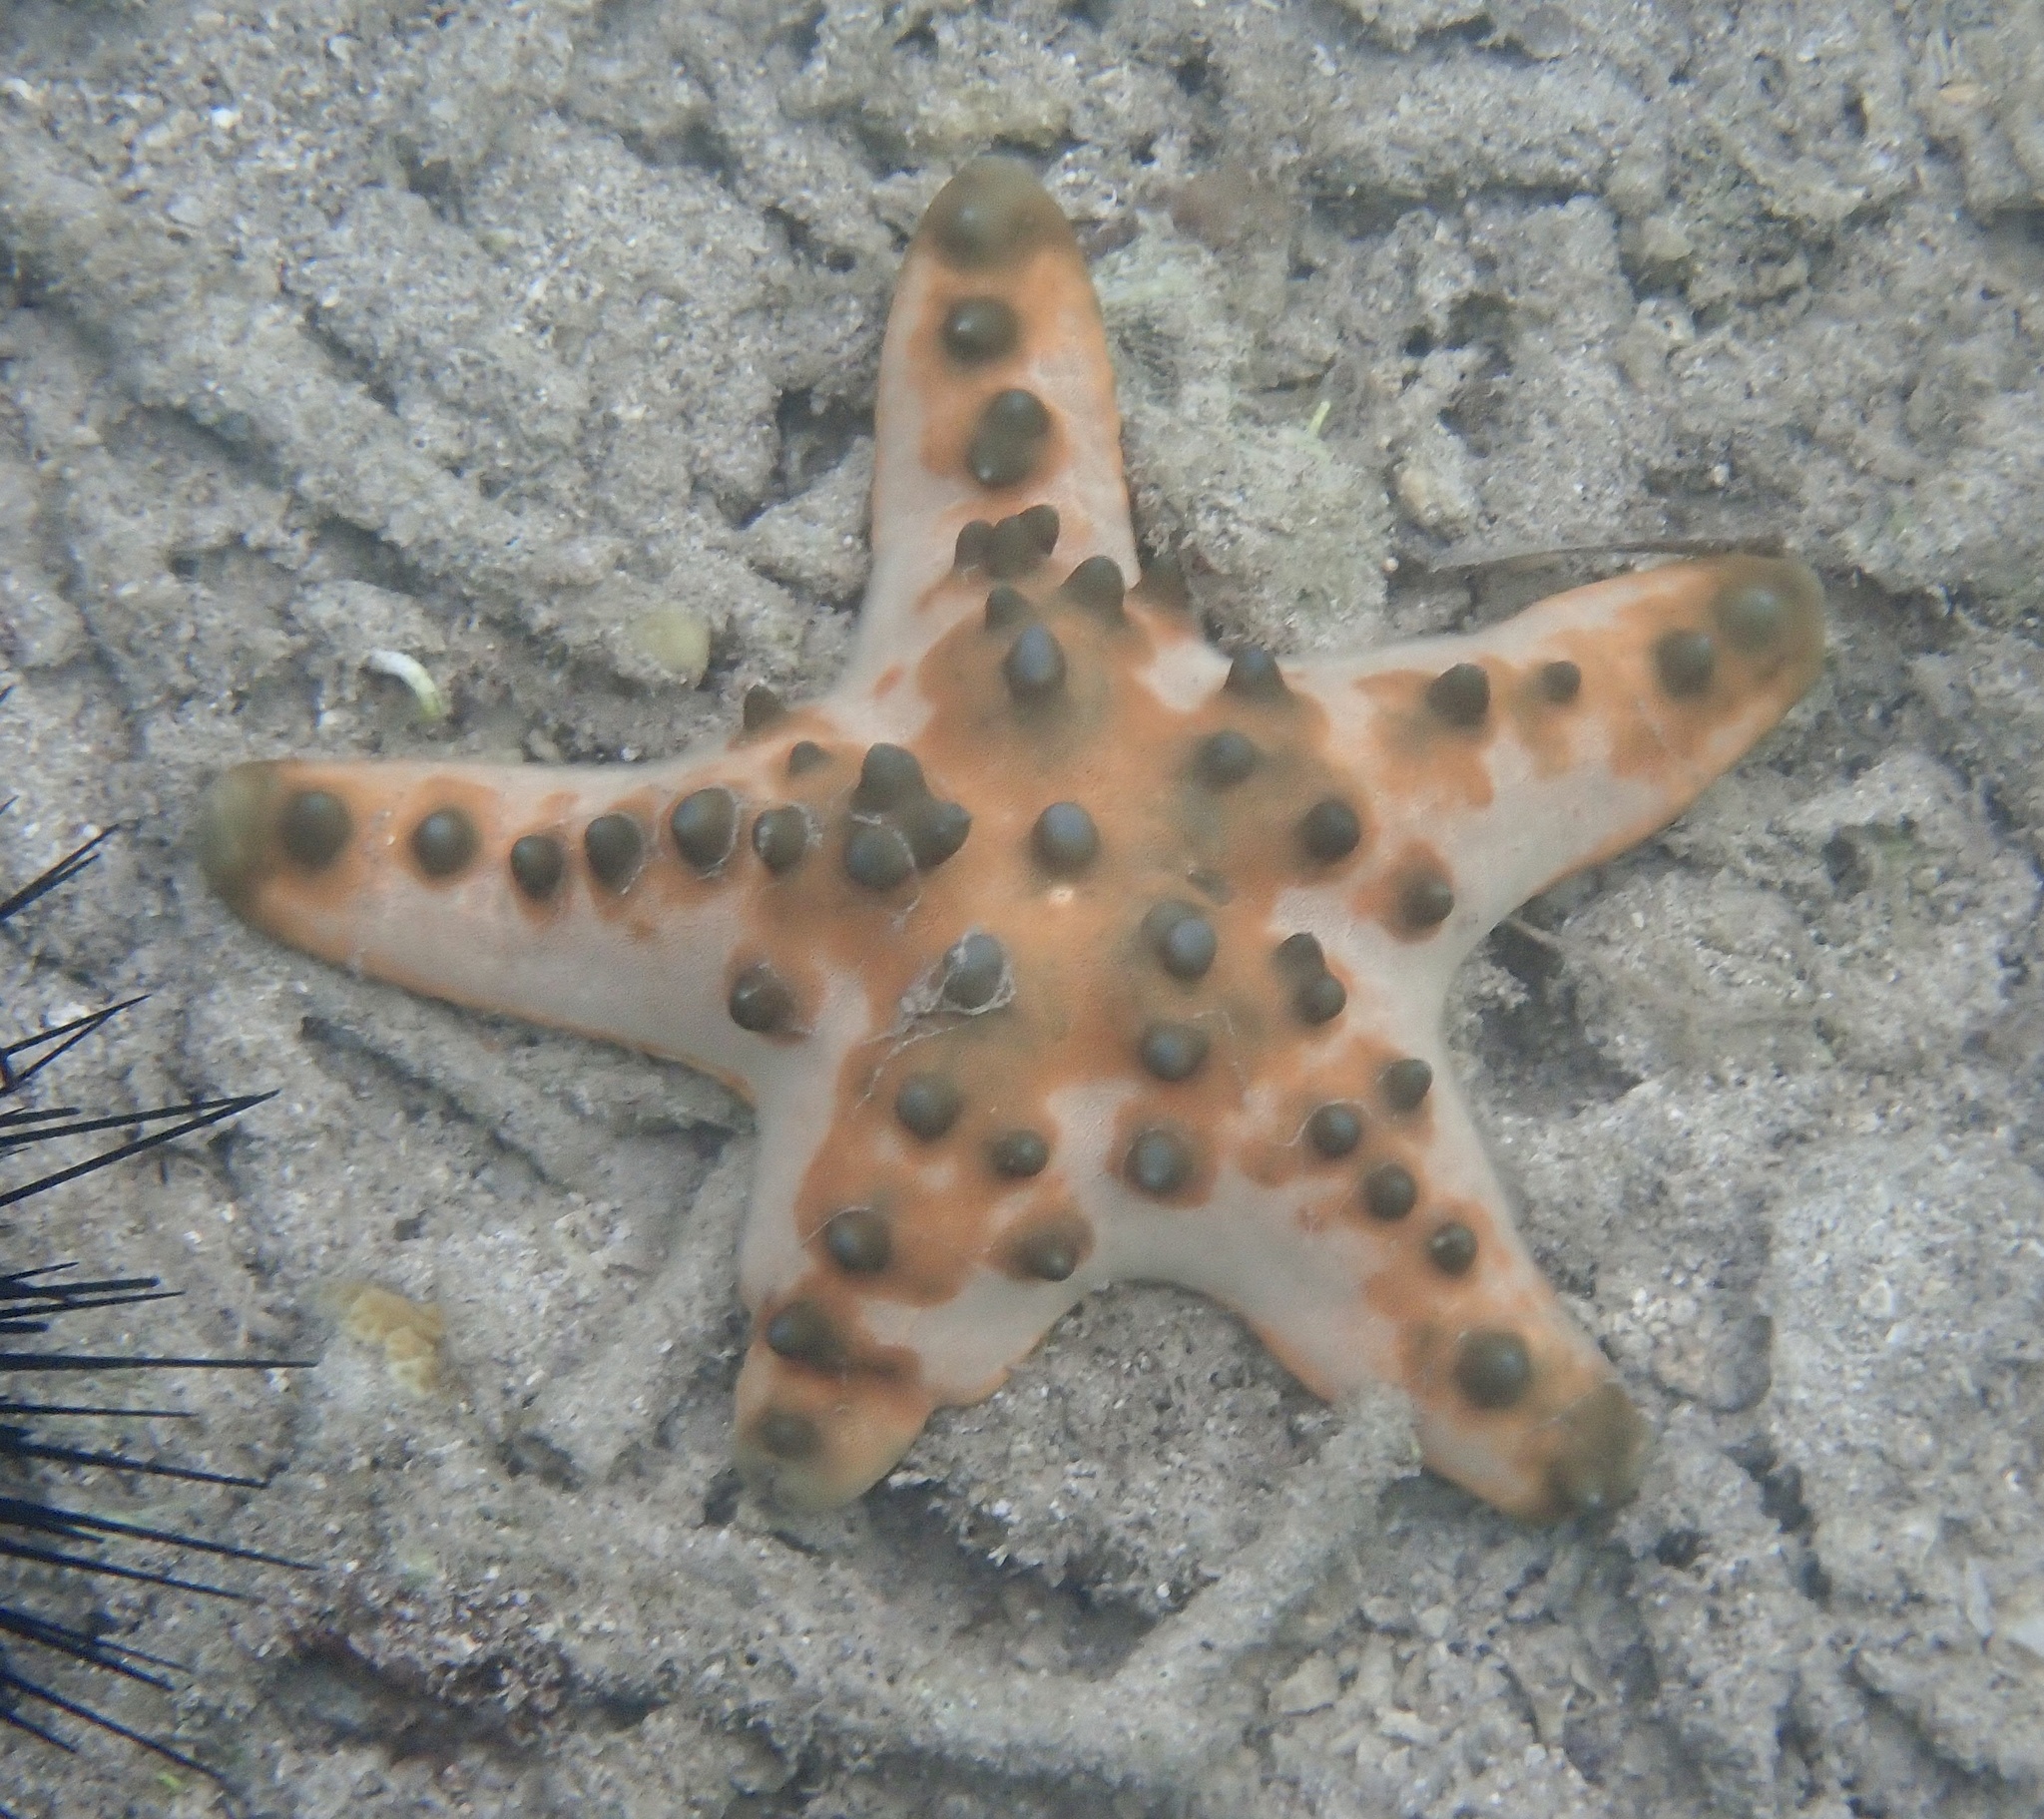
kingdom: Animalia
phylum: Echinodermata
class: Asteroidea
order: Valvatida
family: Oreasteridae
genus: Protoreaster
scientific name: Protoreaster nodosus
